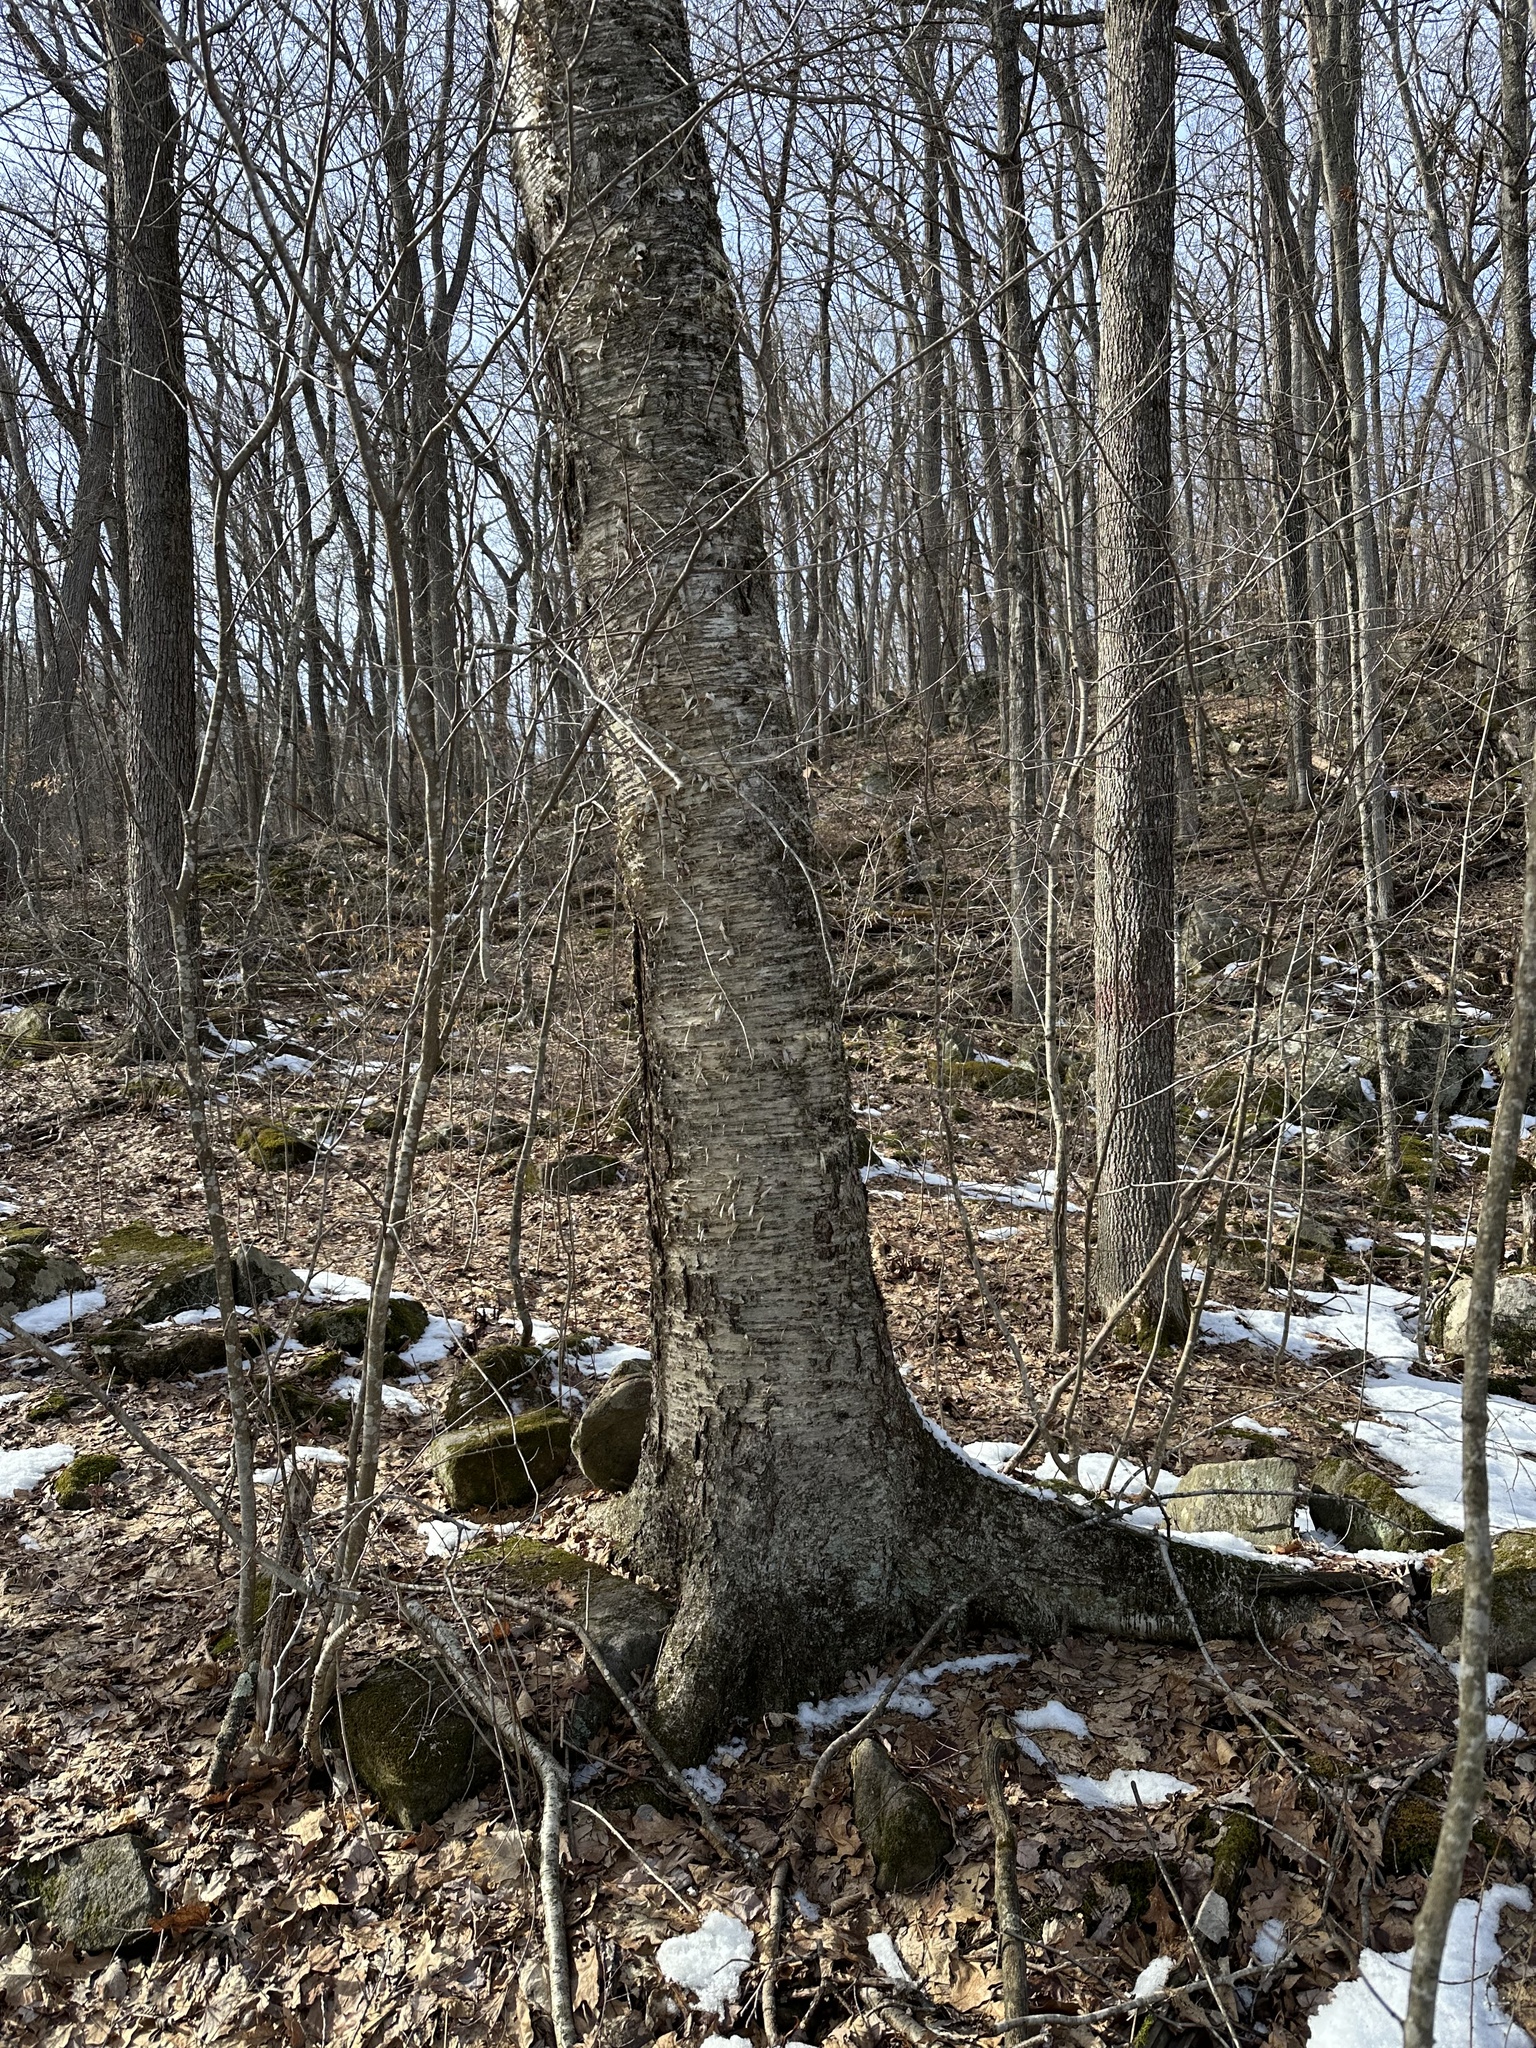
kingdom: Plantae
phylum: Tracheophyta
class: Magnoliopsida
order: Fagales
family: Betulaceae
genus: Betula
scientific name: Betula alleghaniensis
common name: Yellow birch
